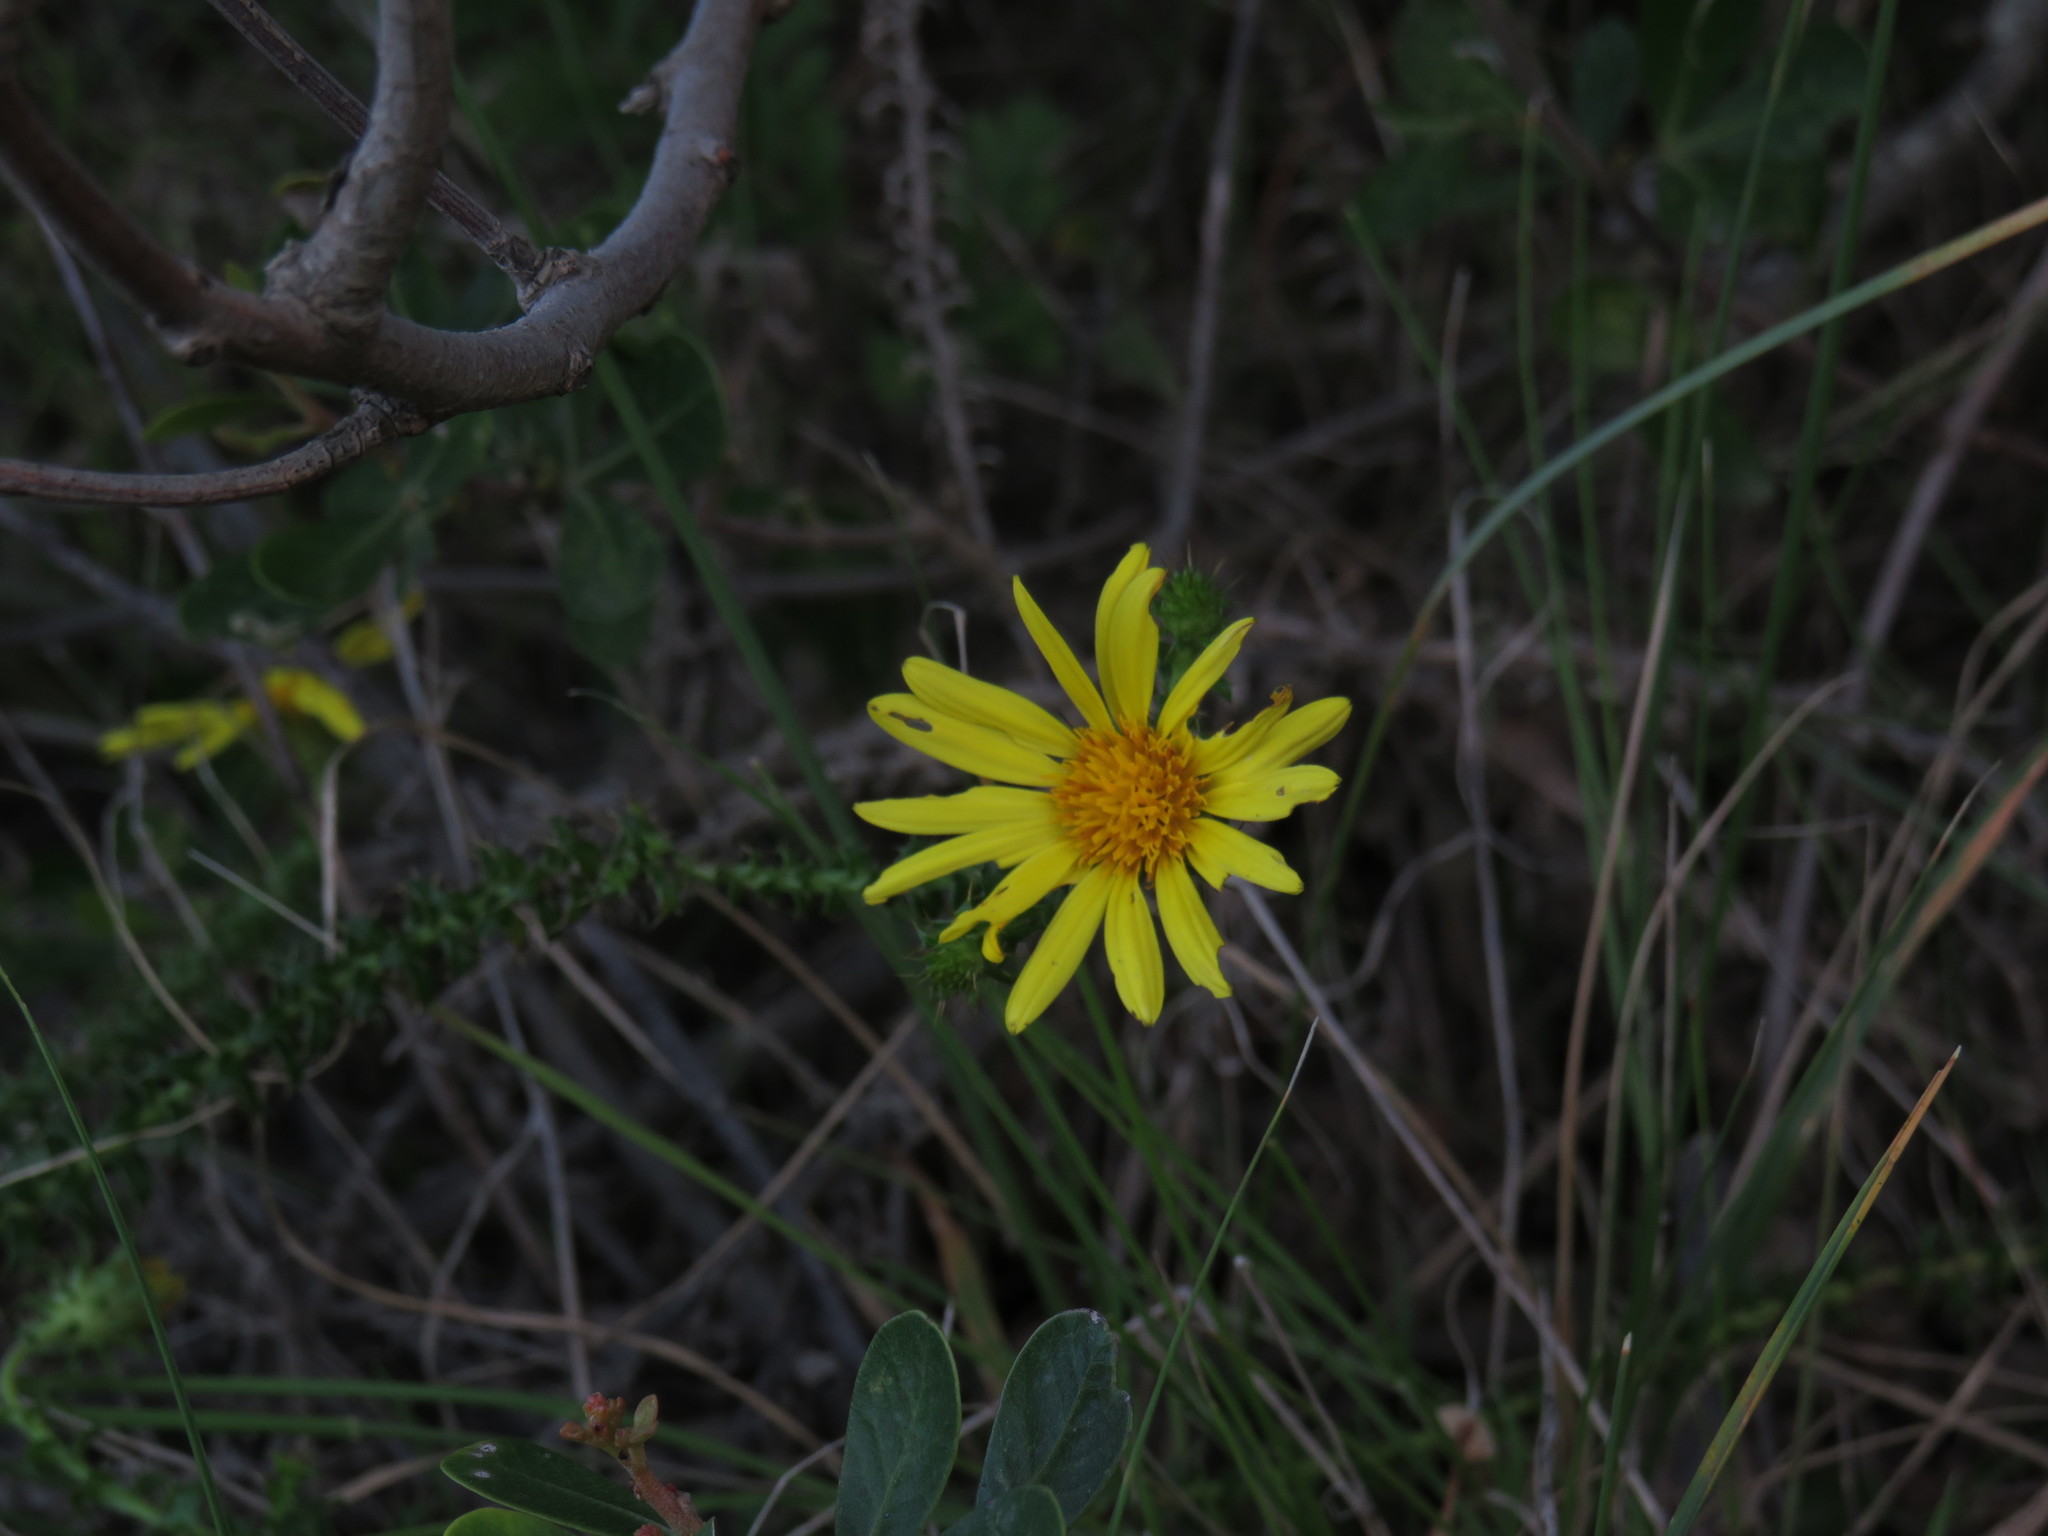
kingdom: Plantae
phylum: Tracheophyta
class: Magnoliopsida
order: Asterales
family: Asteraceae
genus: Cullumia
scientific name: Cullumia setosa
